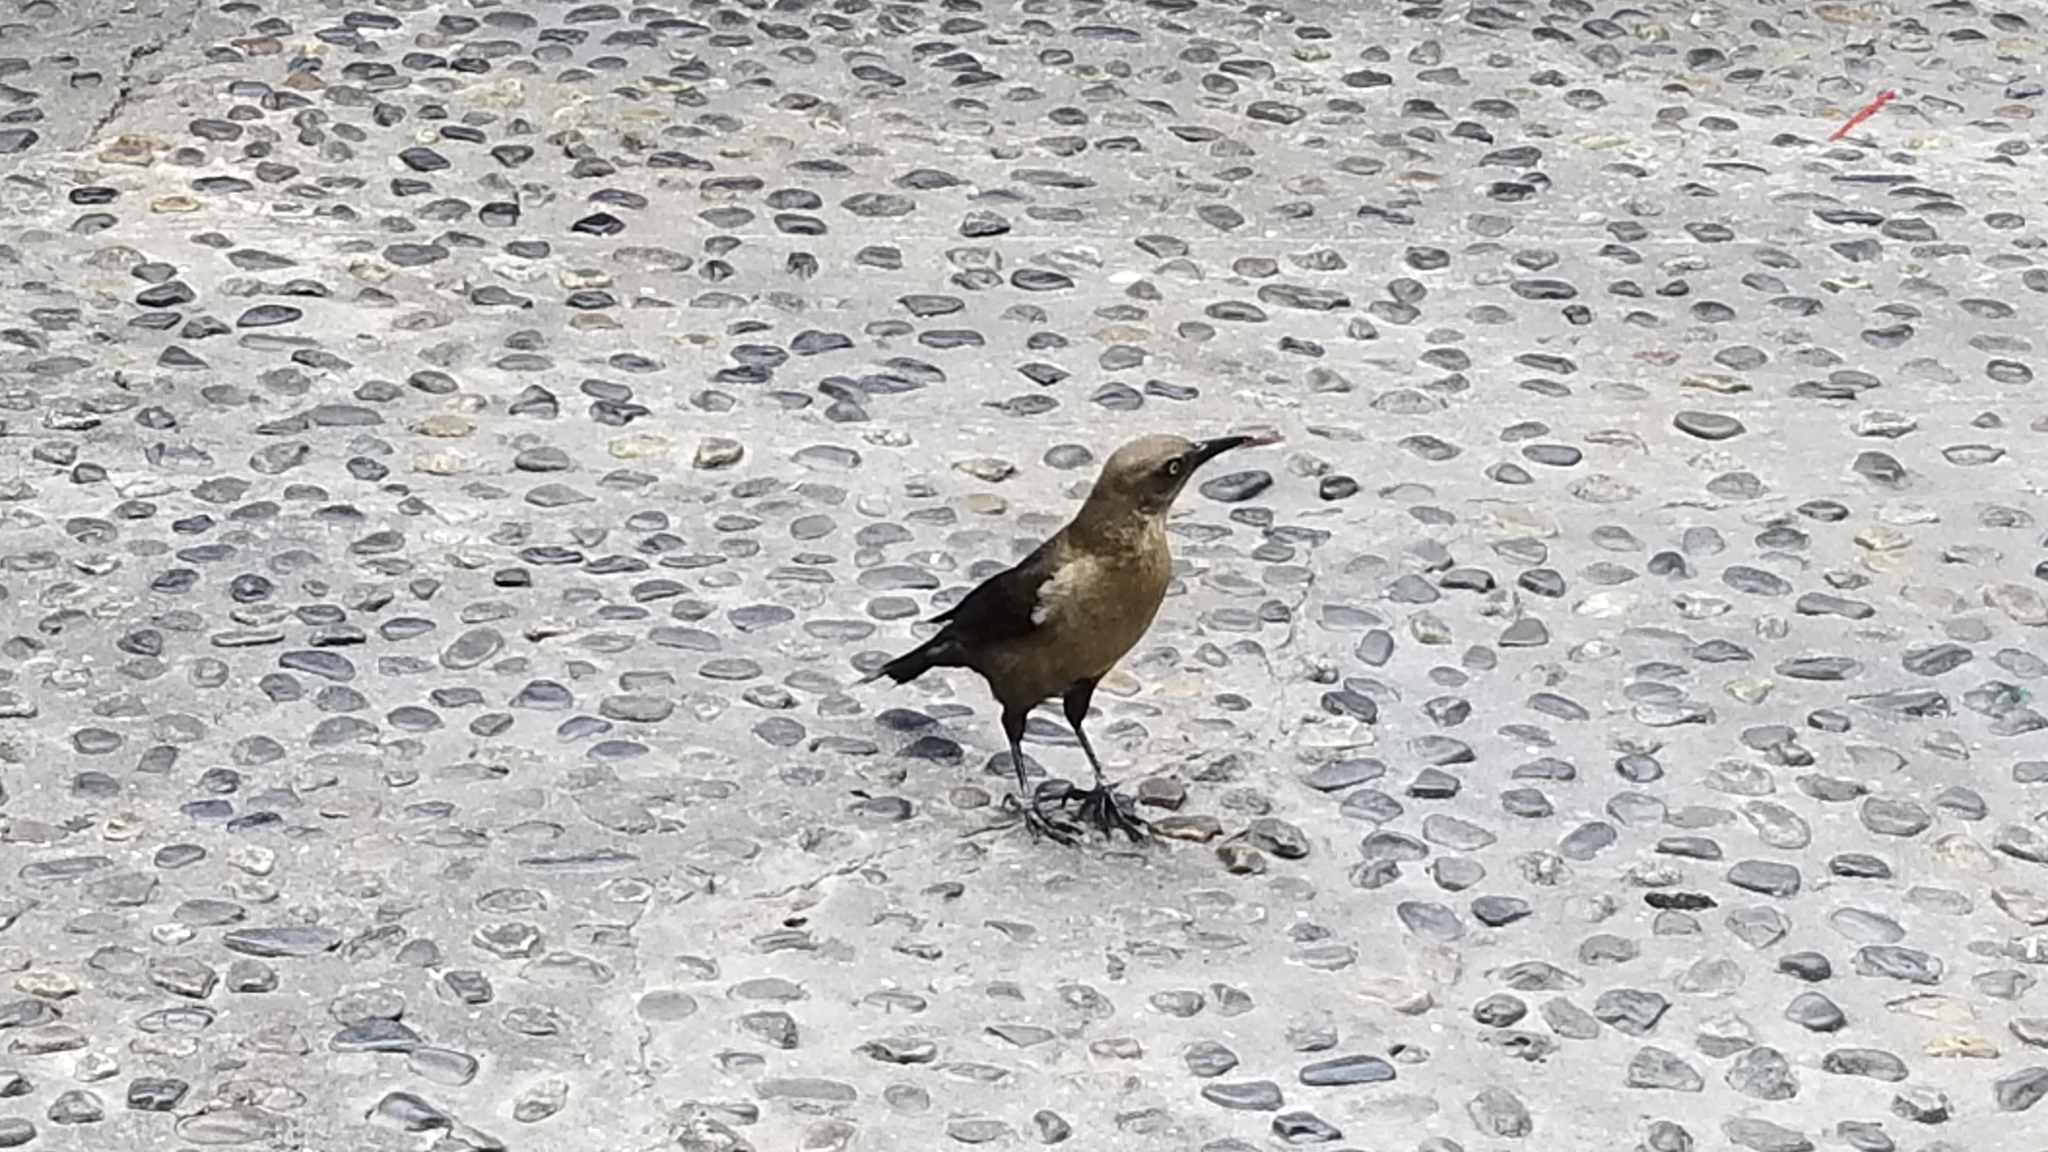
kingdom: Animalia
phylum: Chordata
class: Aves
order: Passeriformes
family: Icteridae
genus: Quiscalus
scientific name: Quiscalus mexicanus
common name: Great-tailed grackle
